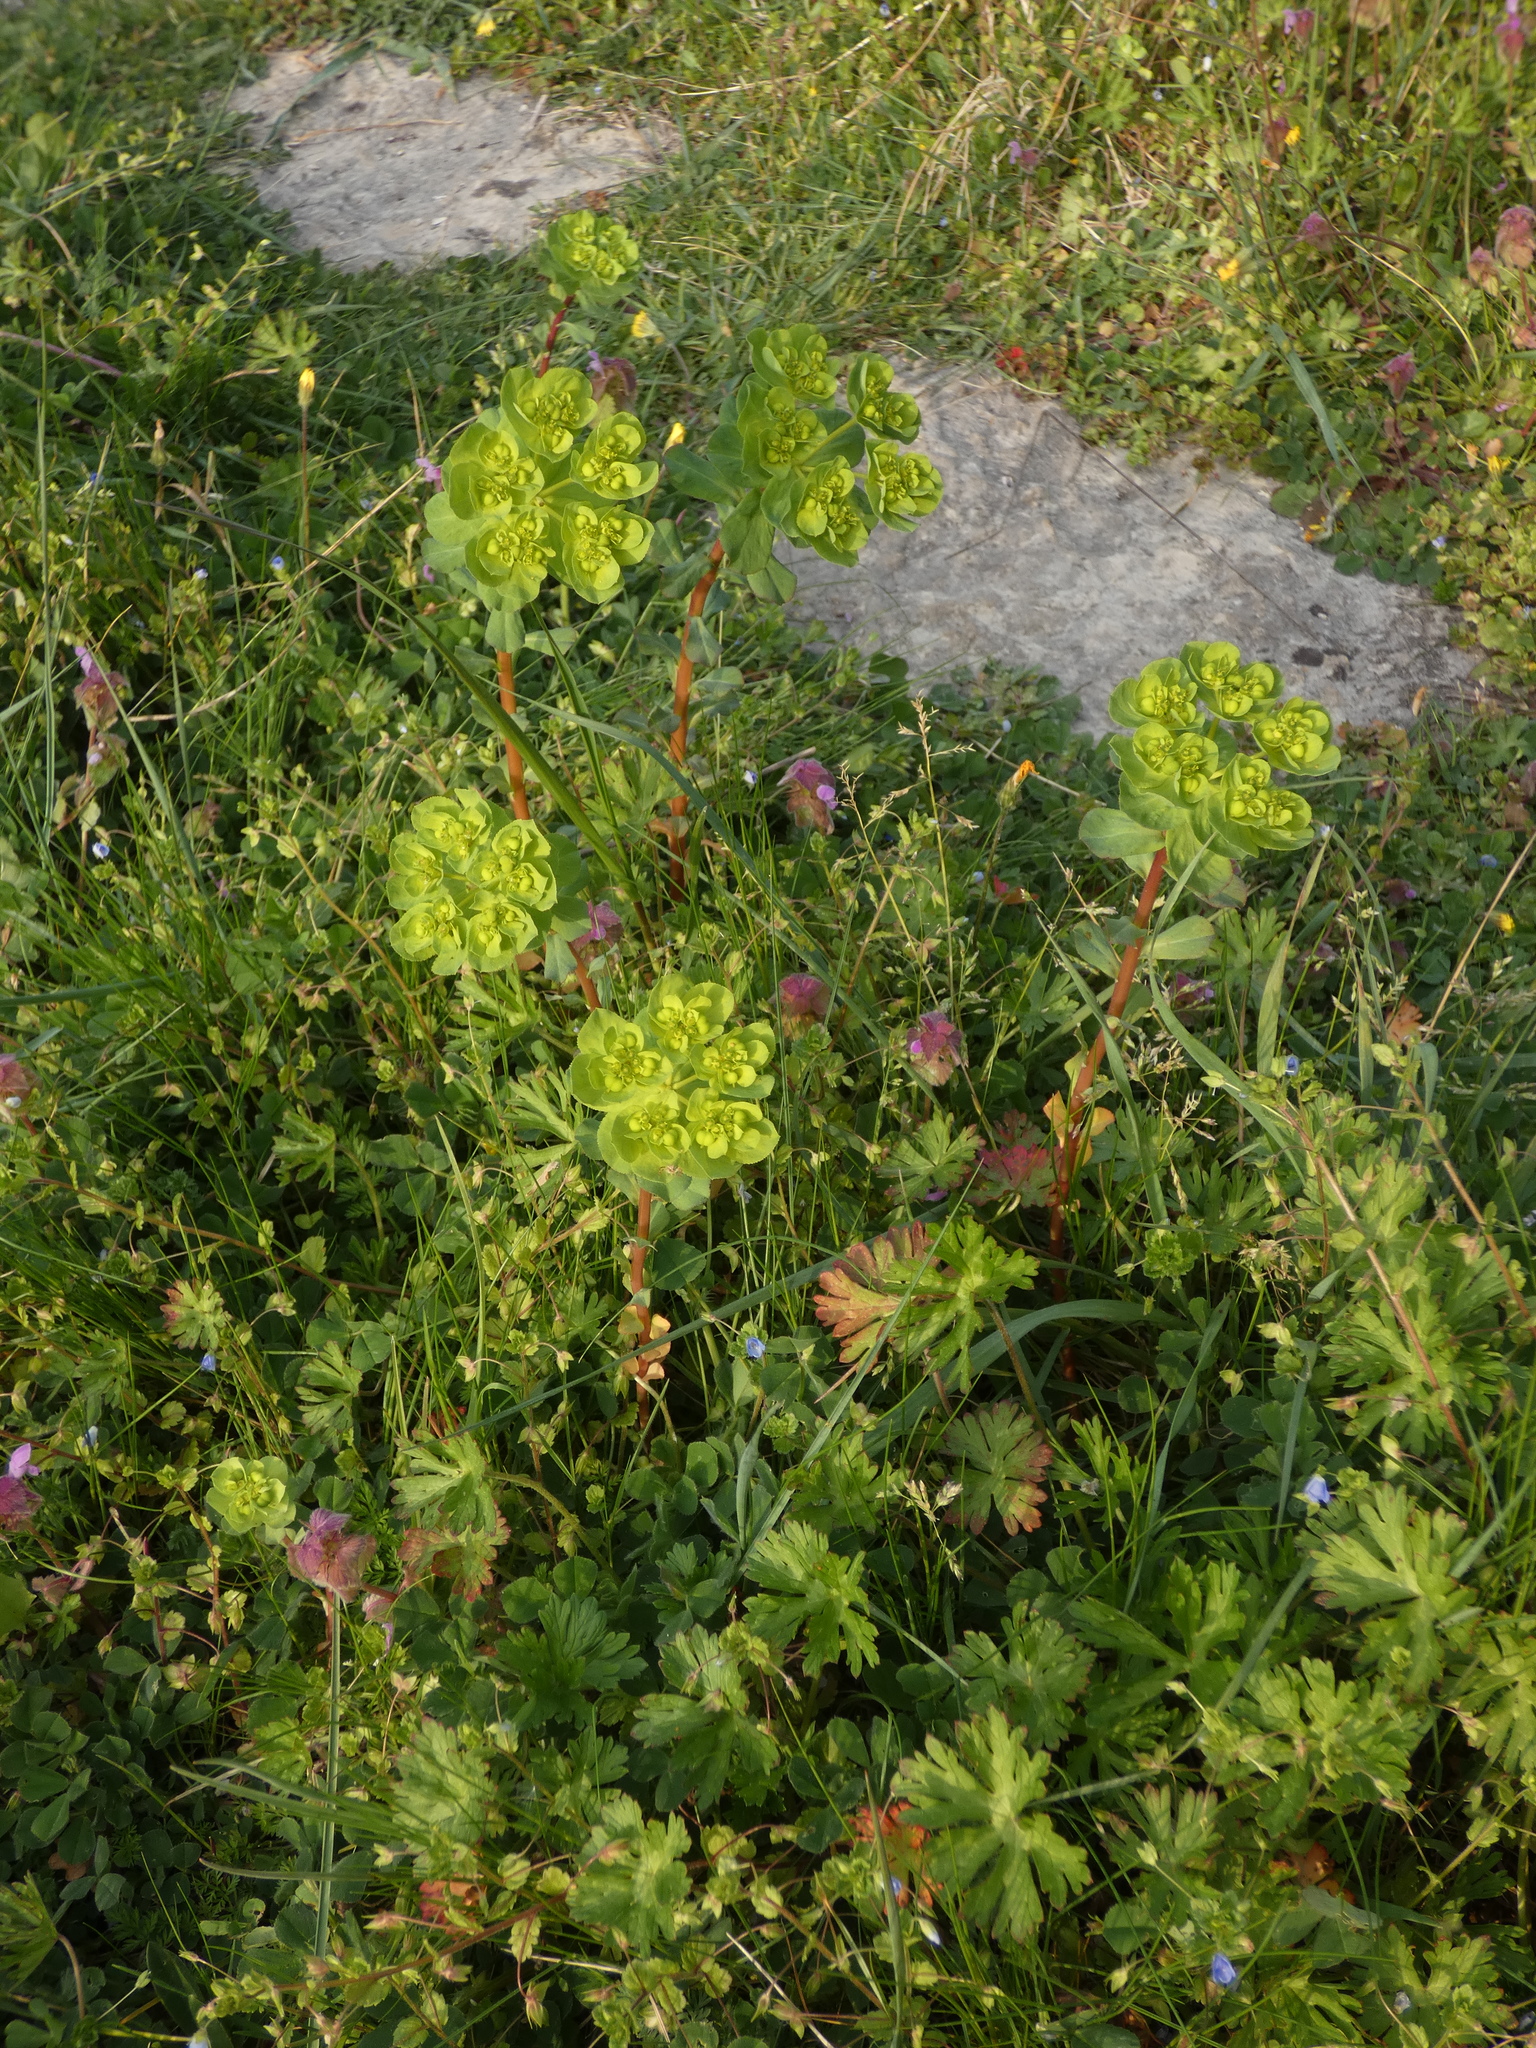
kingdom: Plantae
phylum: Tracheophyta
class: Magnoliopsida
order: Malpighiales
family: Euphorbiaceae
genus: Euphorbia
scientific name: Euphorbia helioscopia
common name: Sun spurge
